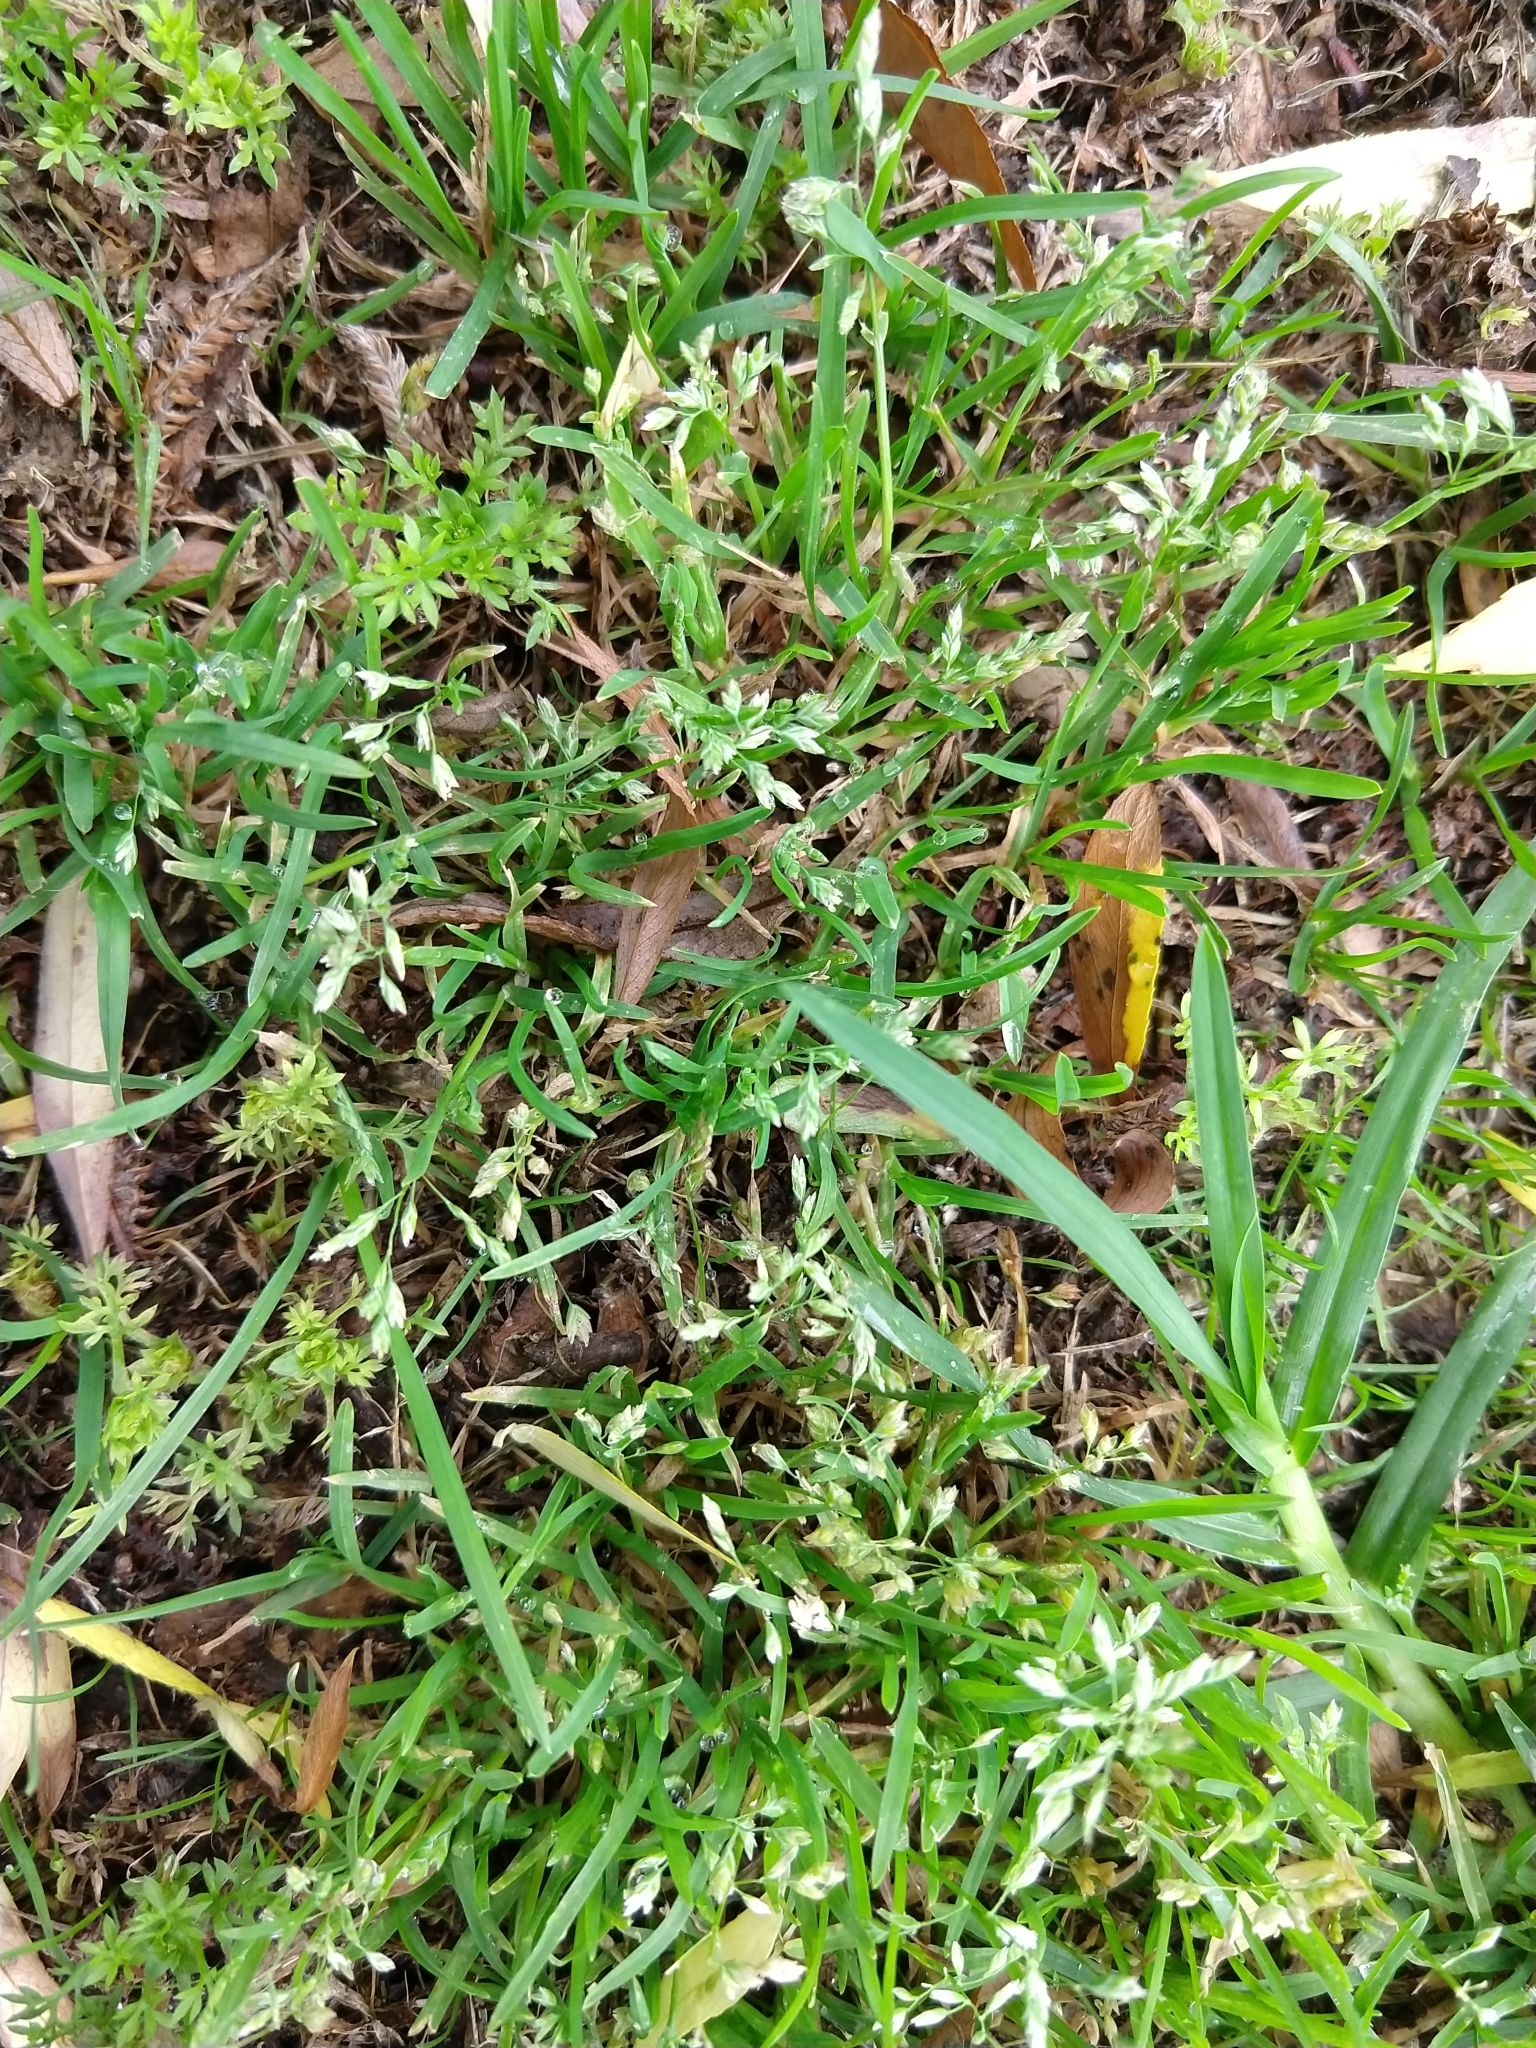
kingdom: Plantae
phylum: Tracheophyta
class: Liliopsida
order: Poales
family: Poaceae
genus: Poa
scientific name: Poa annua
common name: Annual bluegrass
